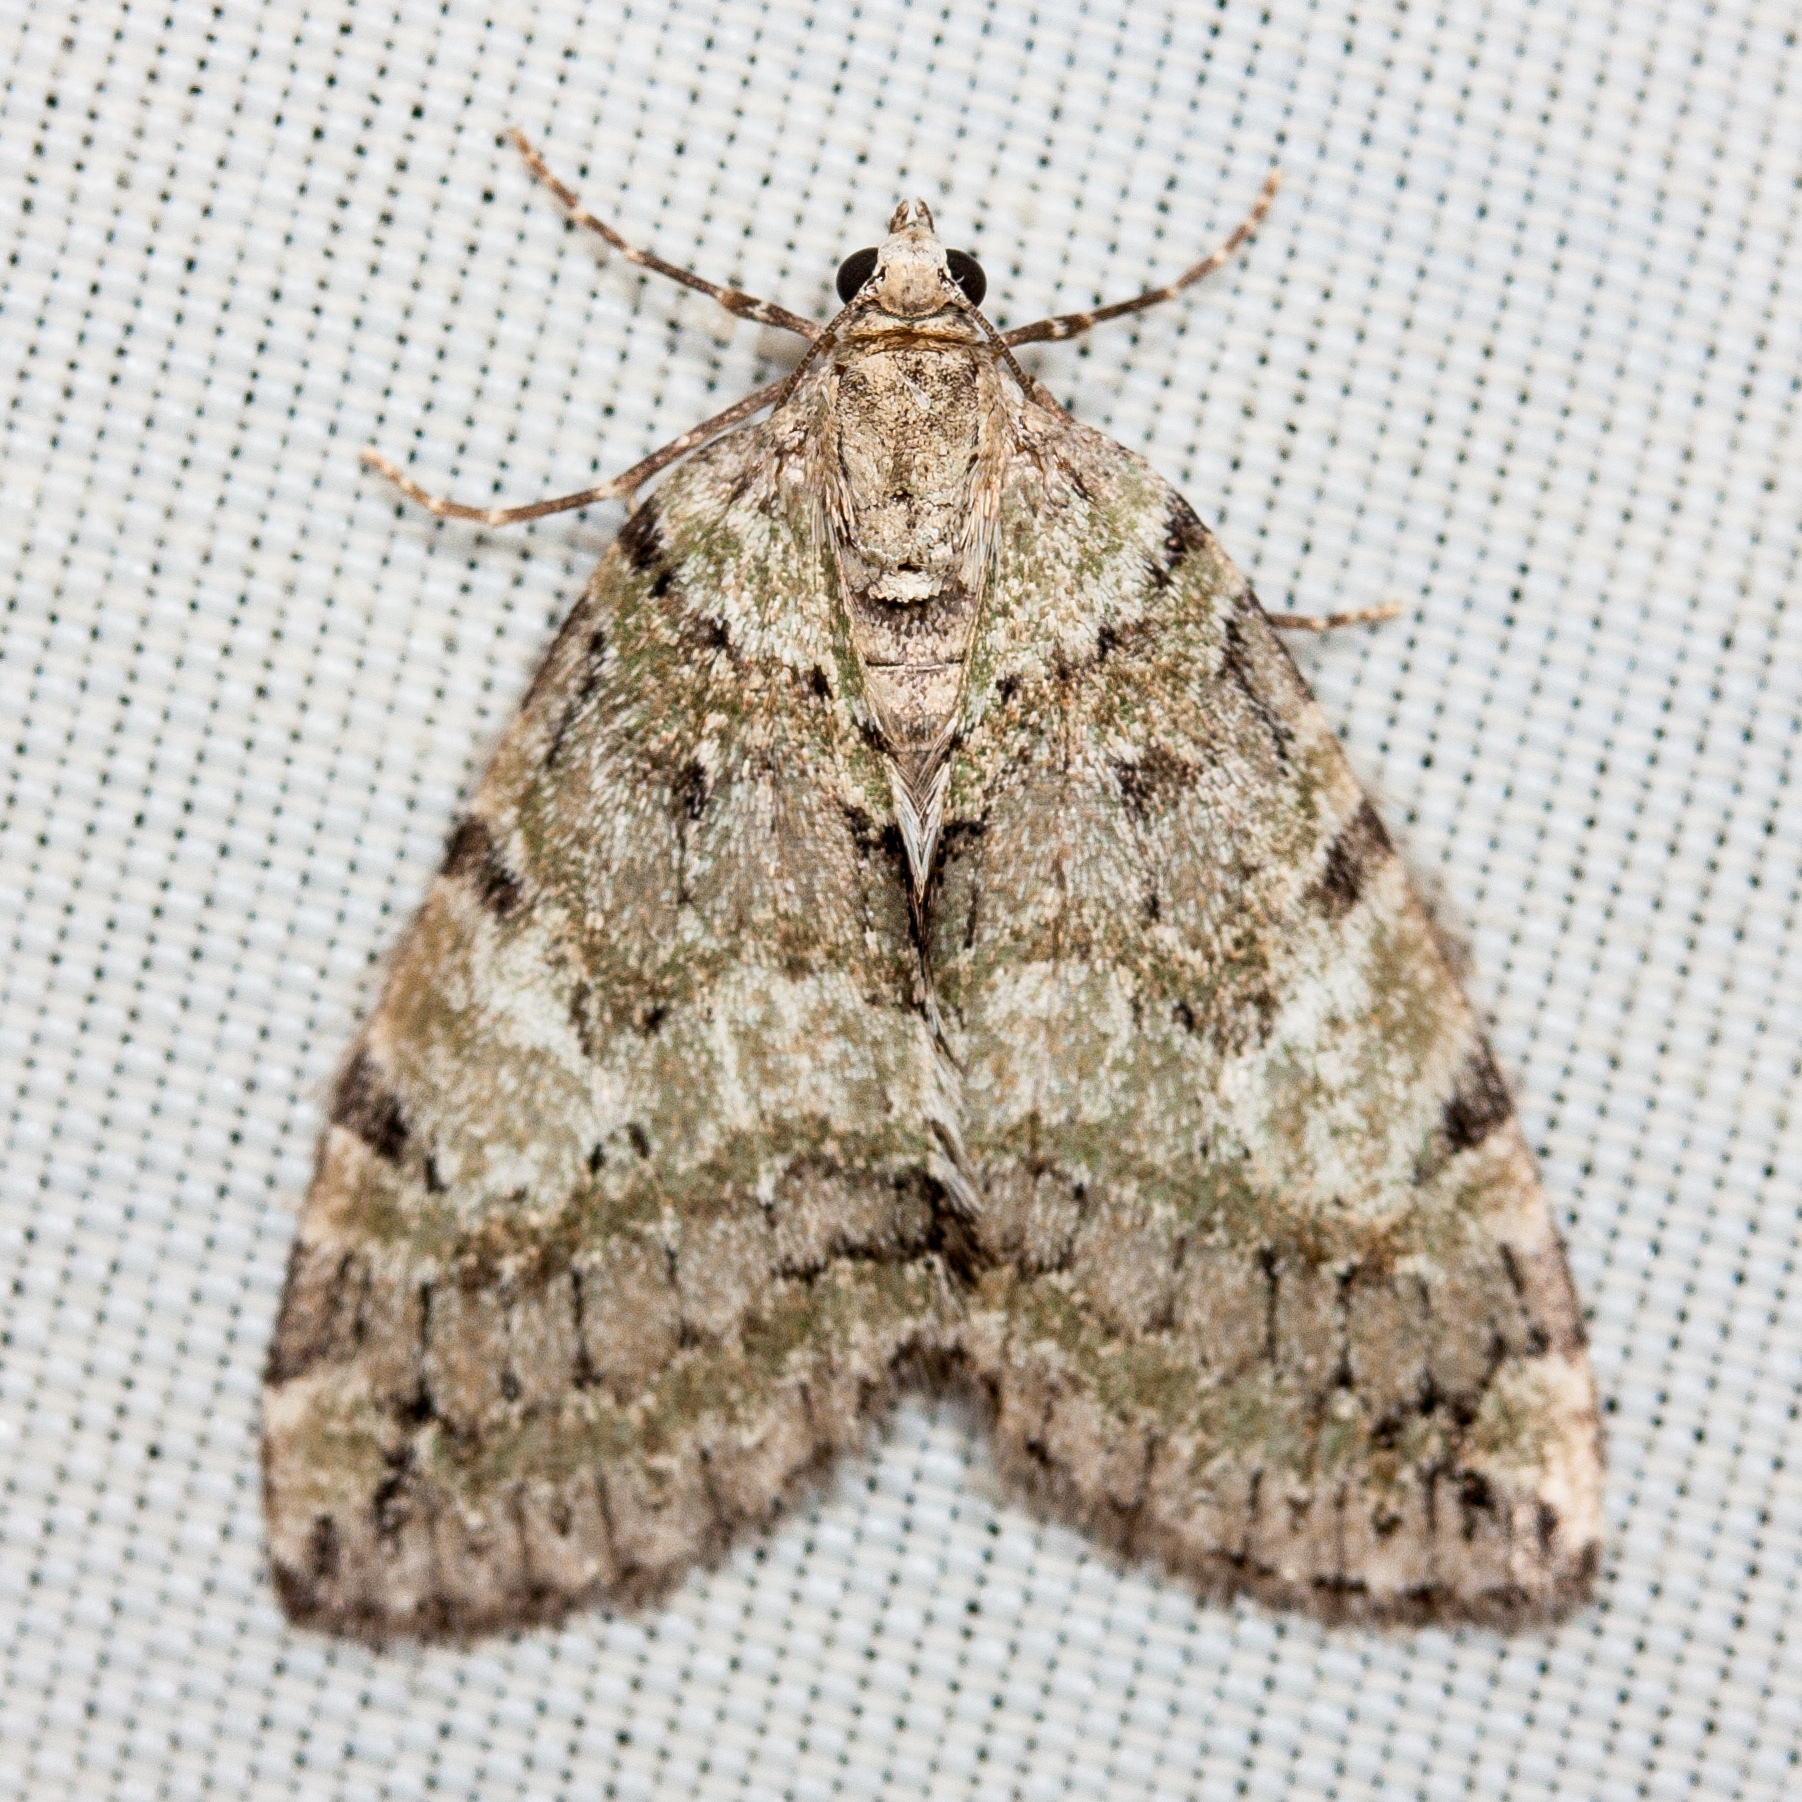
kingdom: Animalia
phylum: Arthropoda
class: Insecta
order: Lepidoptera
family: Geometridae
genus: Hydriomena
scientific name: Hydriomena nubilofasciata
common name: Oak winter highflier moth
